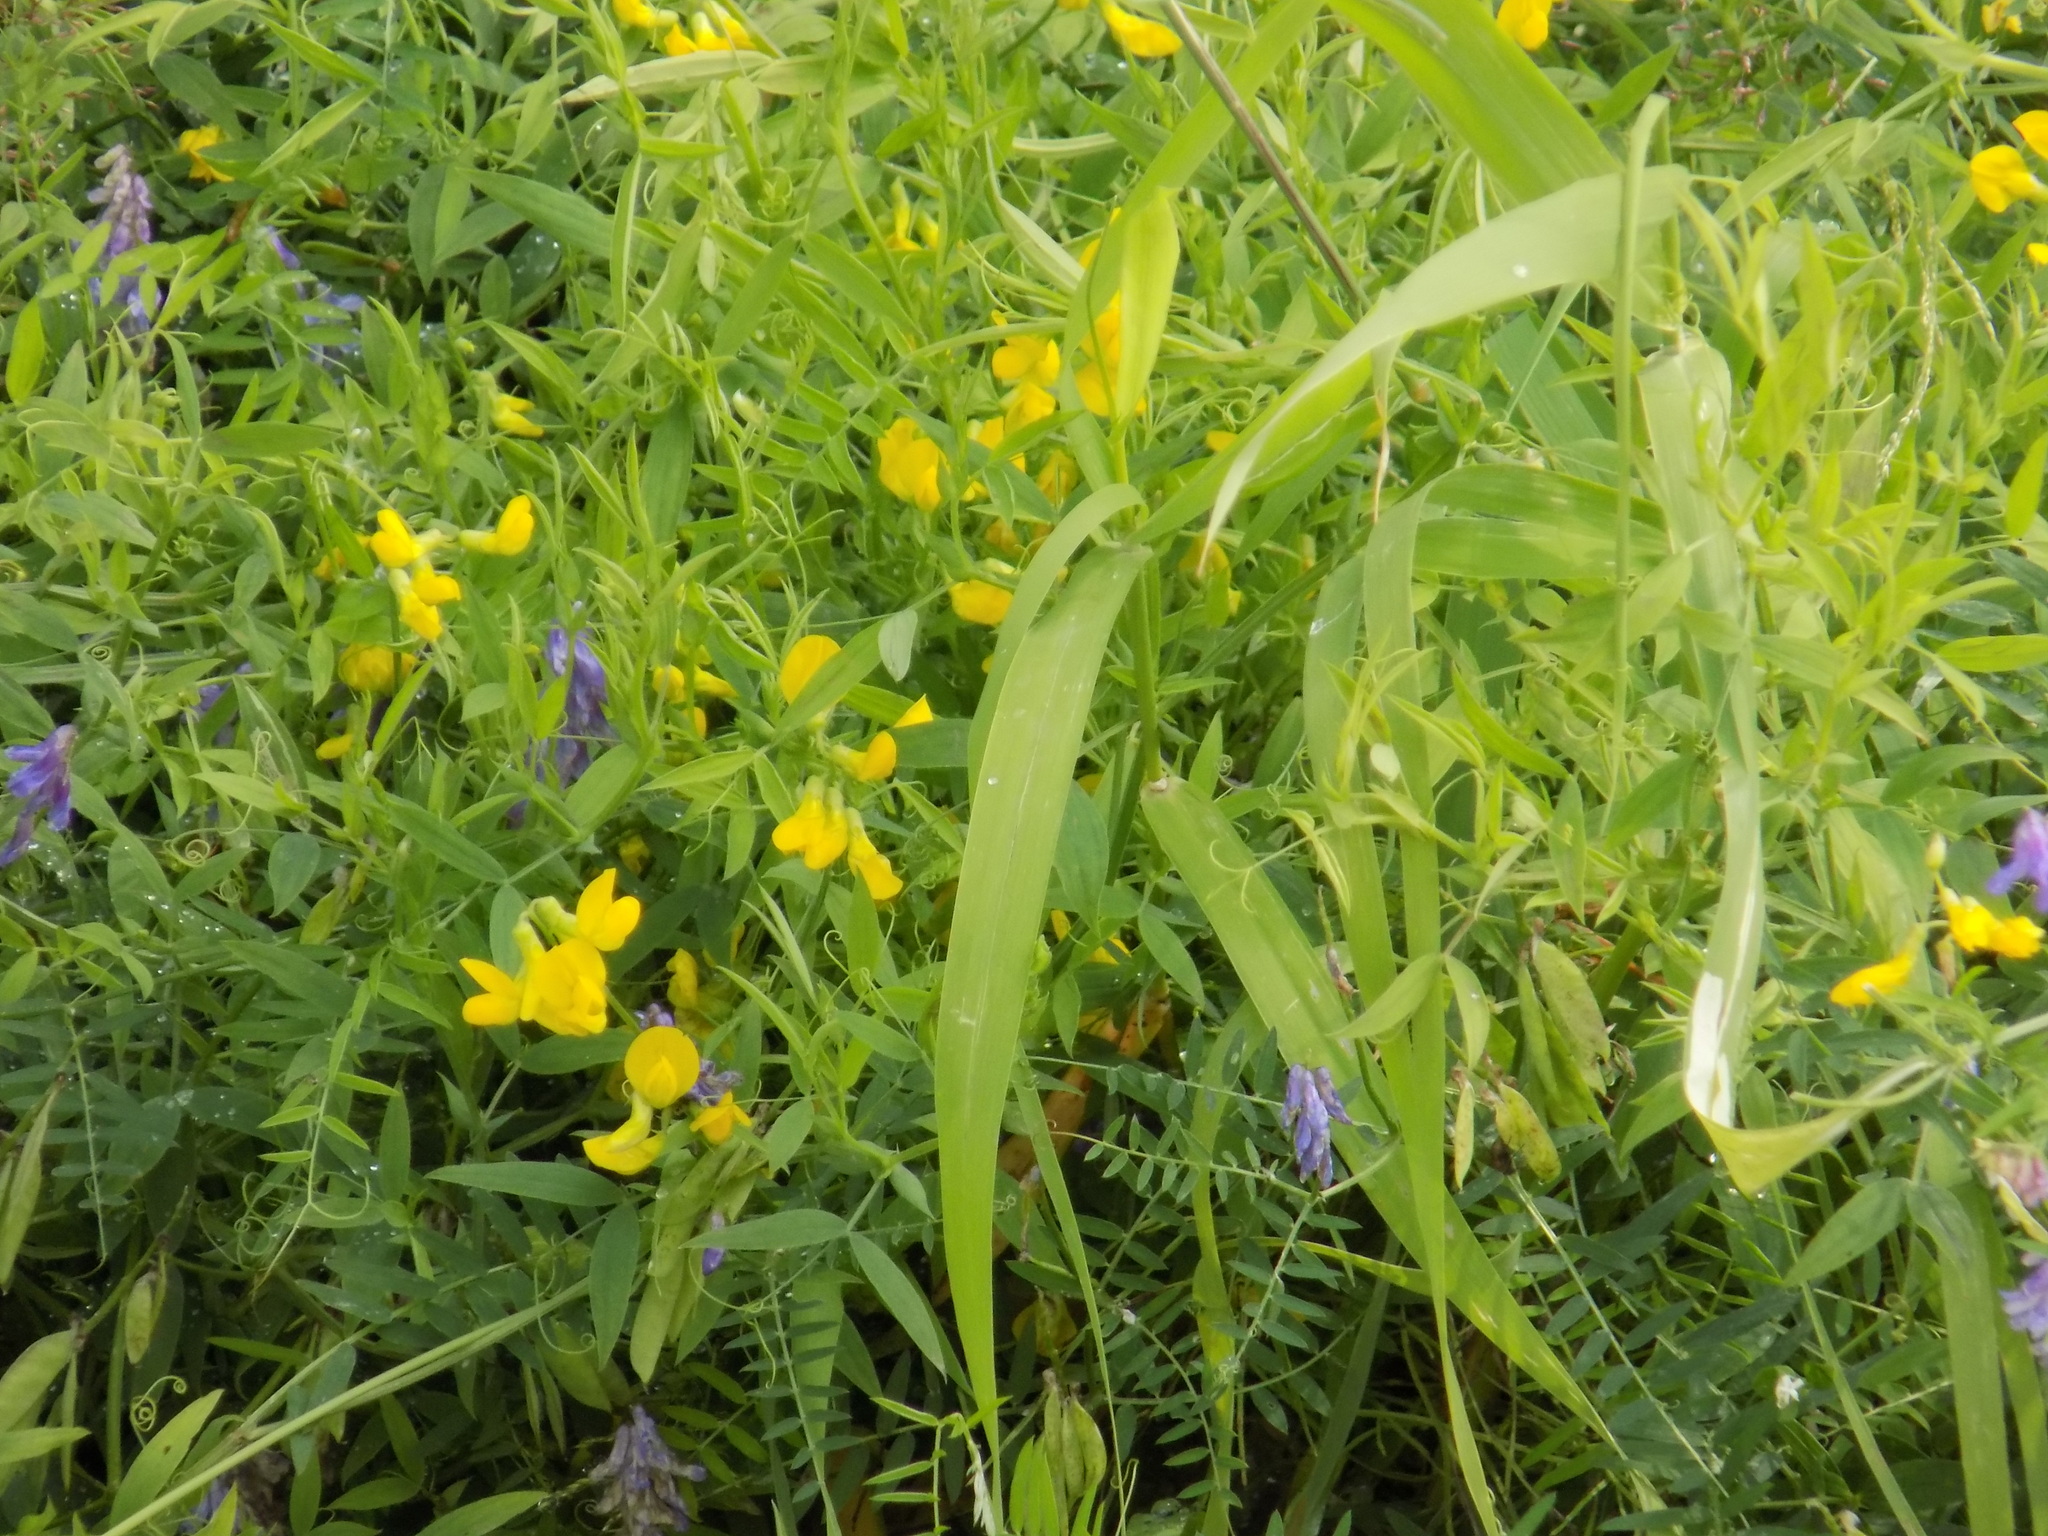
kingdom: Plantae
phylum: Tracheophyta
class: Magnoliopsida
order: Fabales
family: Fabaceae
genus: Lathyrus
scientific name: Lathyrus pratensis
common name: Meadow vetchling
